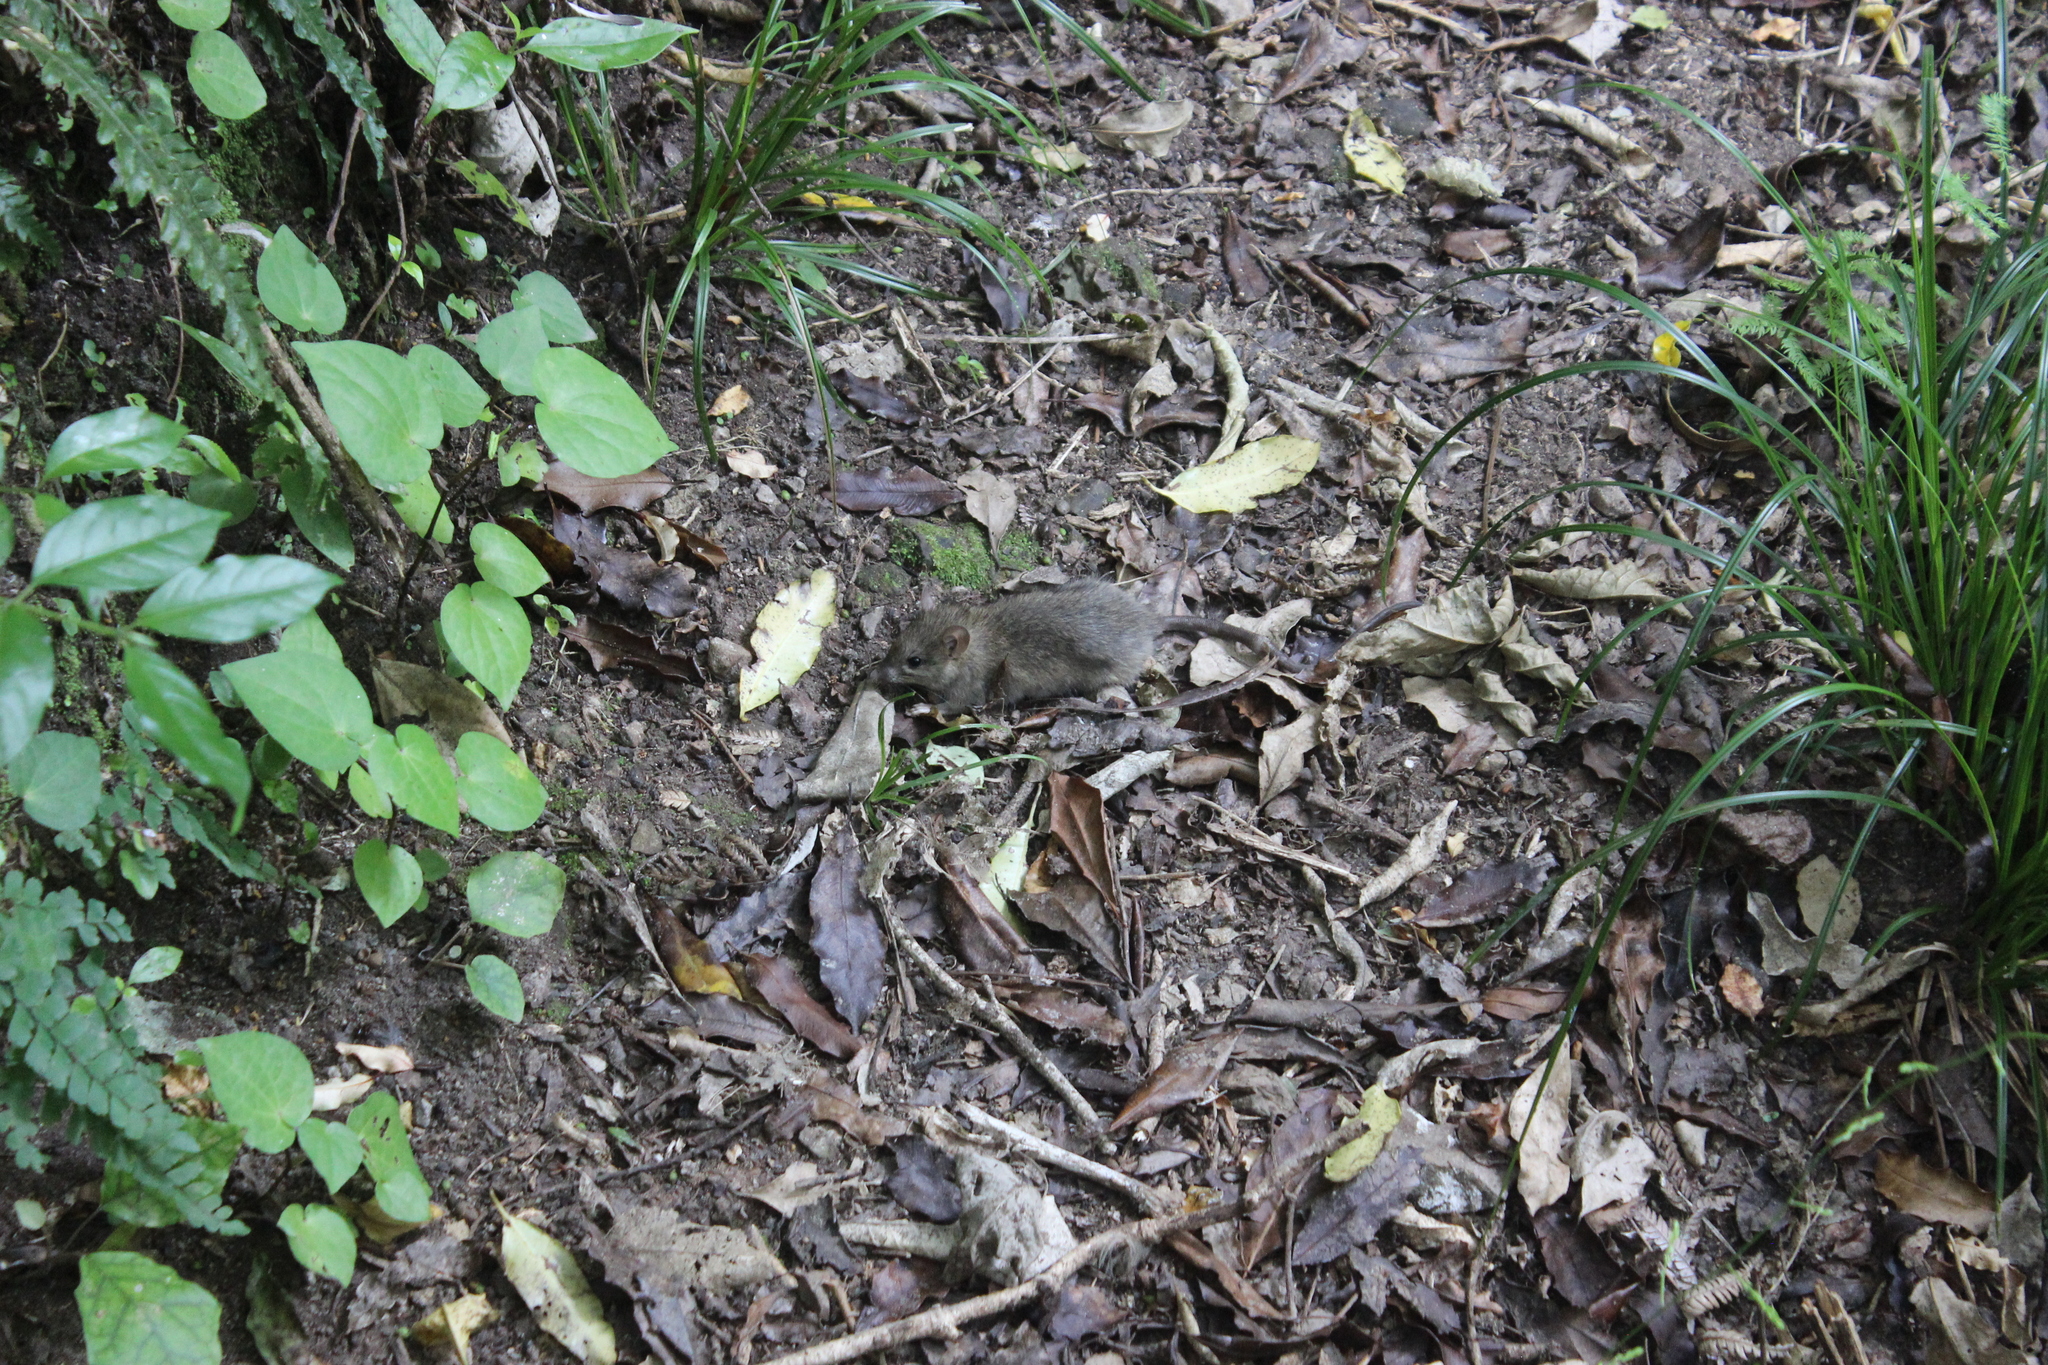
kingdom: Animalia
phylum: Chordata
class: Mammalia
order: Rodentia
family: Muridae
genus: Rattus
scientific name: Rattus rattus
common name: Black rat
